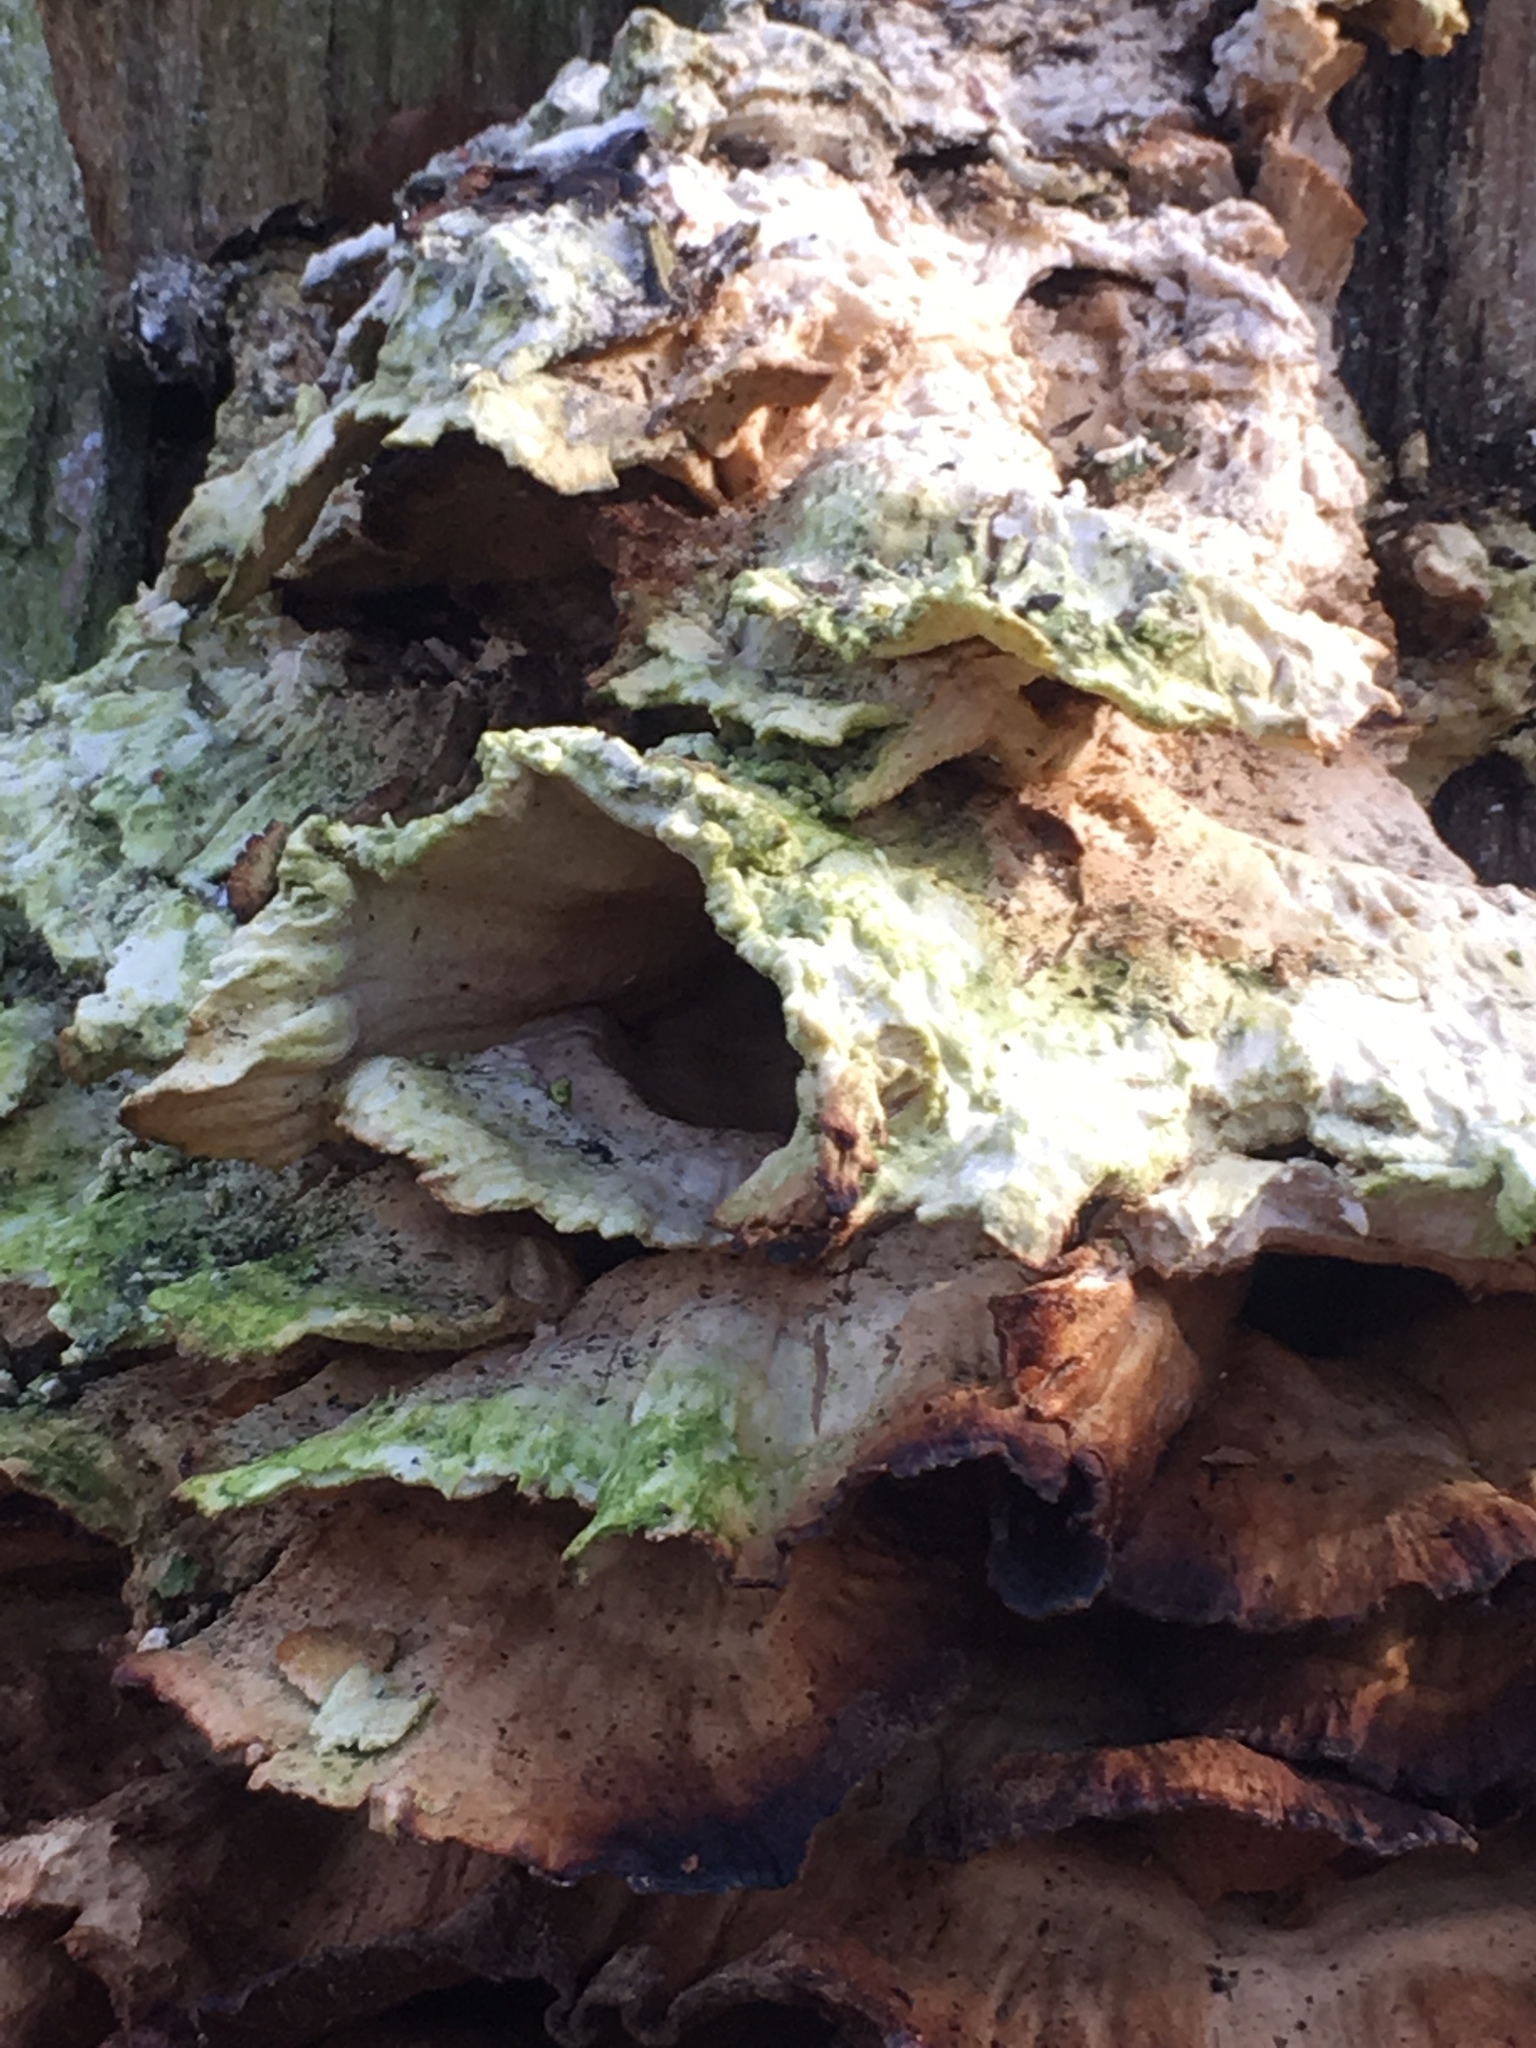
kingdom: Fungi
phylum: Basidiomycota
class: Agaricomycetes
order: Polyporales
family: Laetiporaceae
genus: Laetiporus
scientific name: Laetiporus sulphureus
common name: Chicken of the woods
